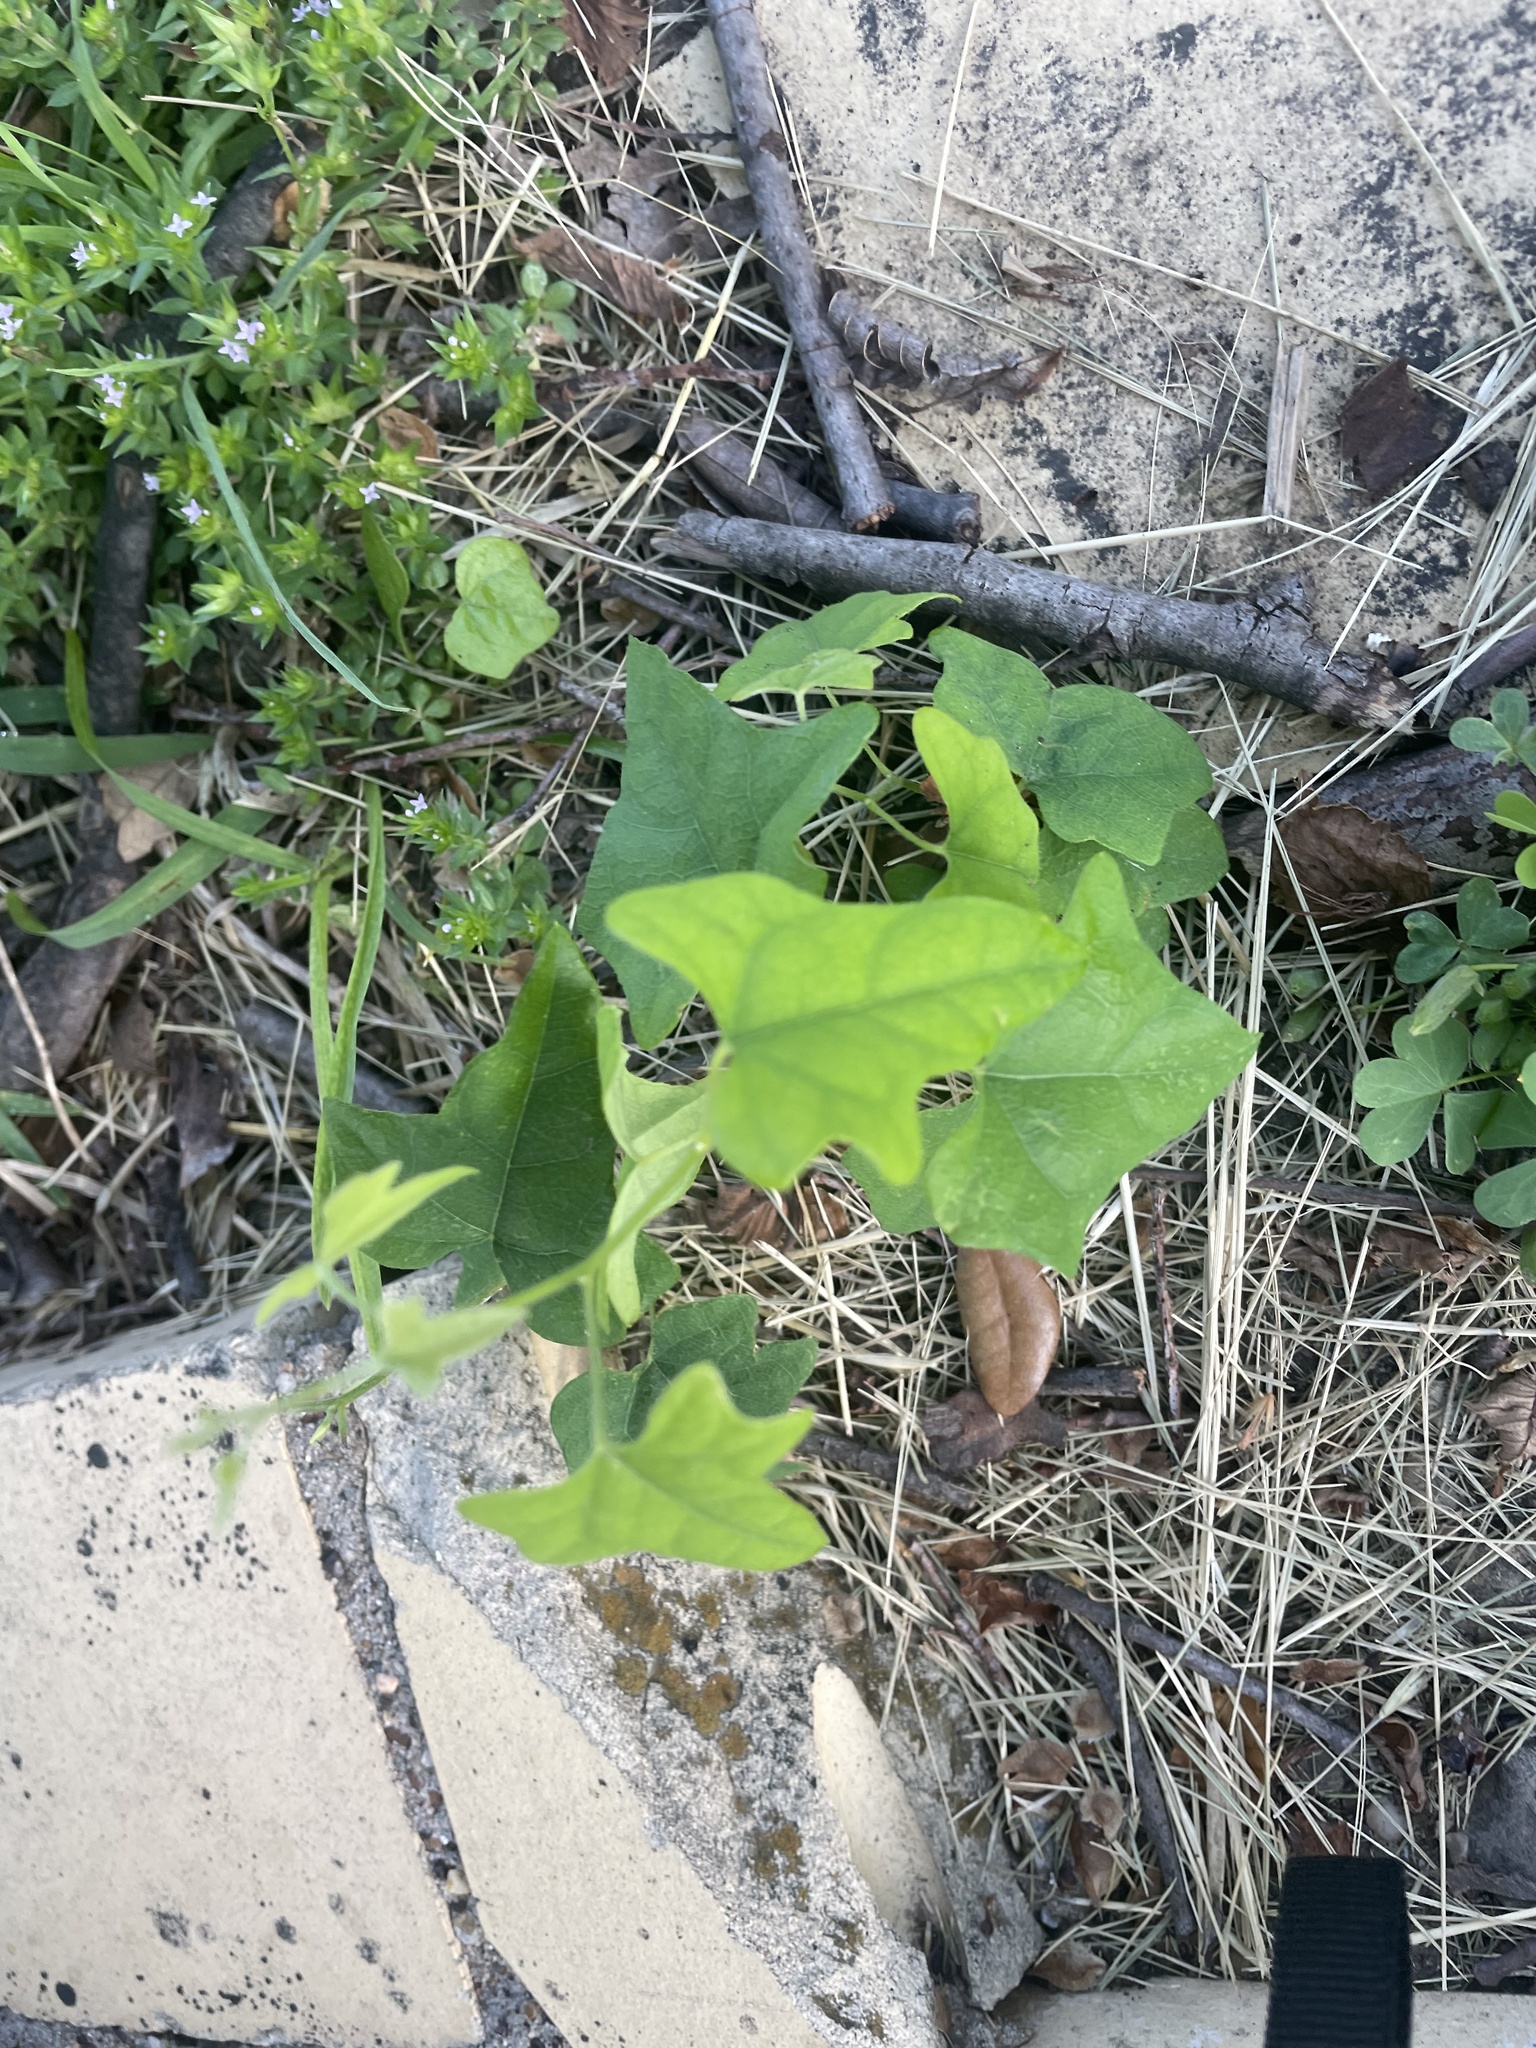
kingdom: Plantae
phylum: Tracheophyta
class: Magnoliopsida
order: Ranunculales
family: Menispermaceae
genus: Cocculus
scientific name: Cocculus carolinus
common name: Carolina moonseed
